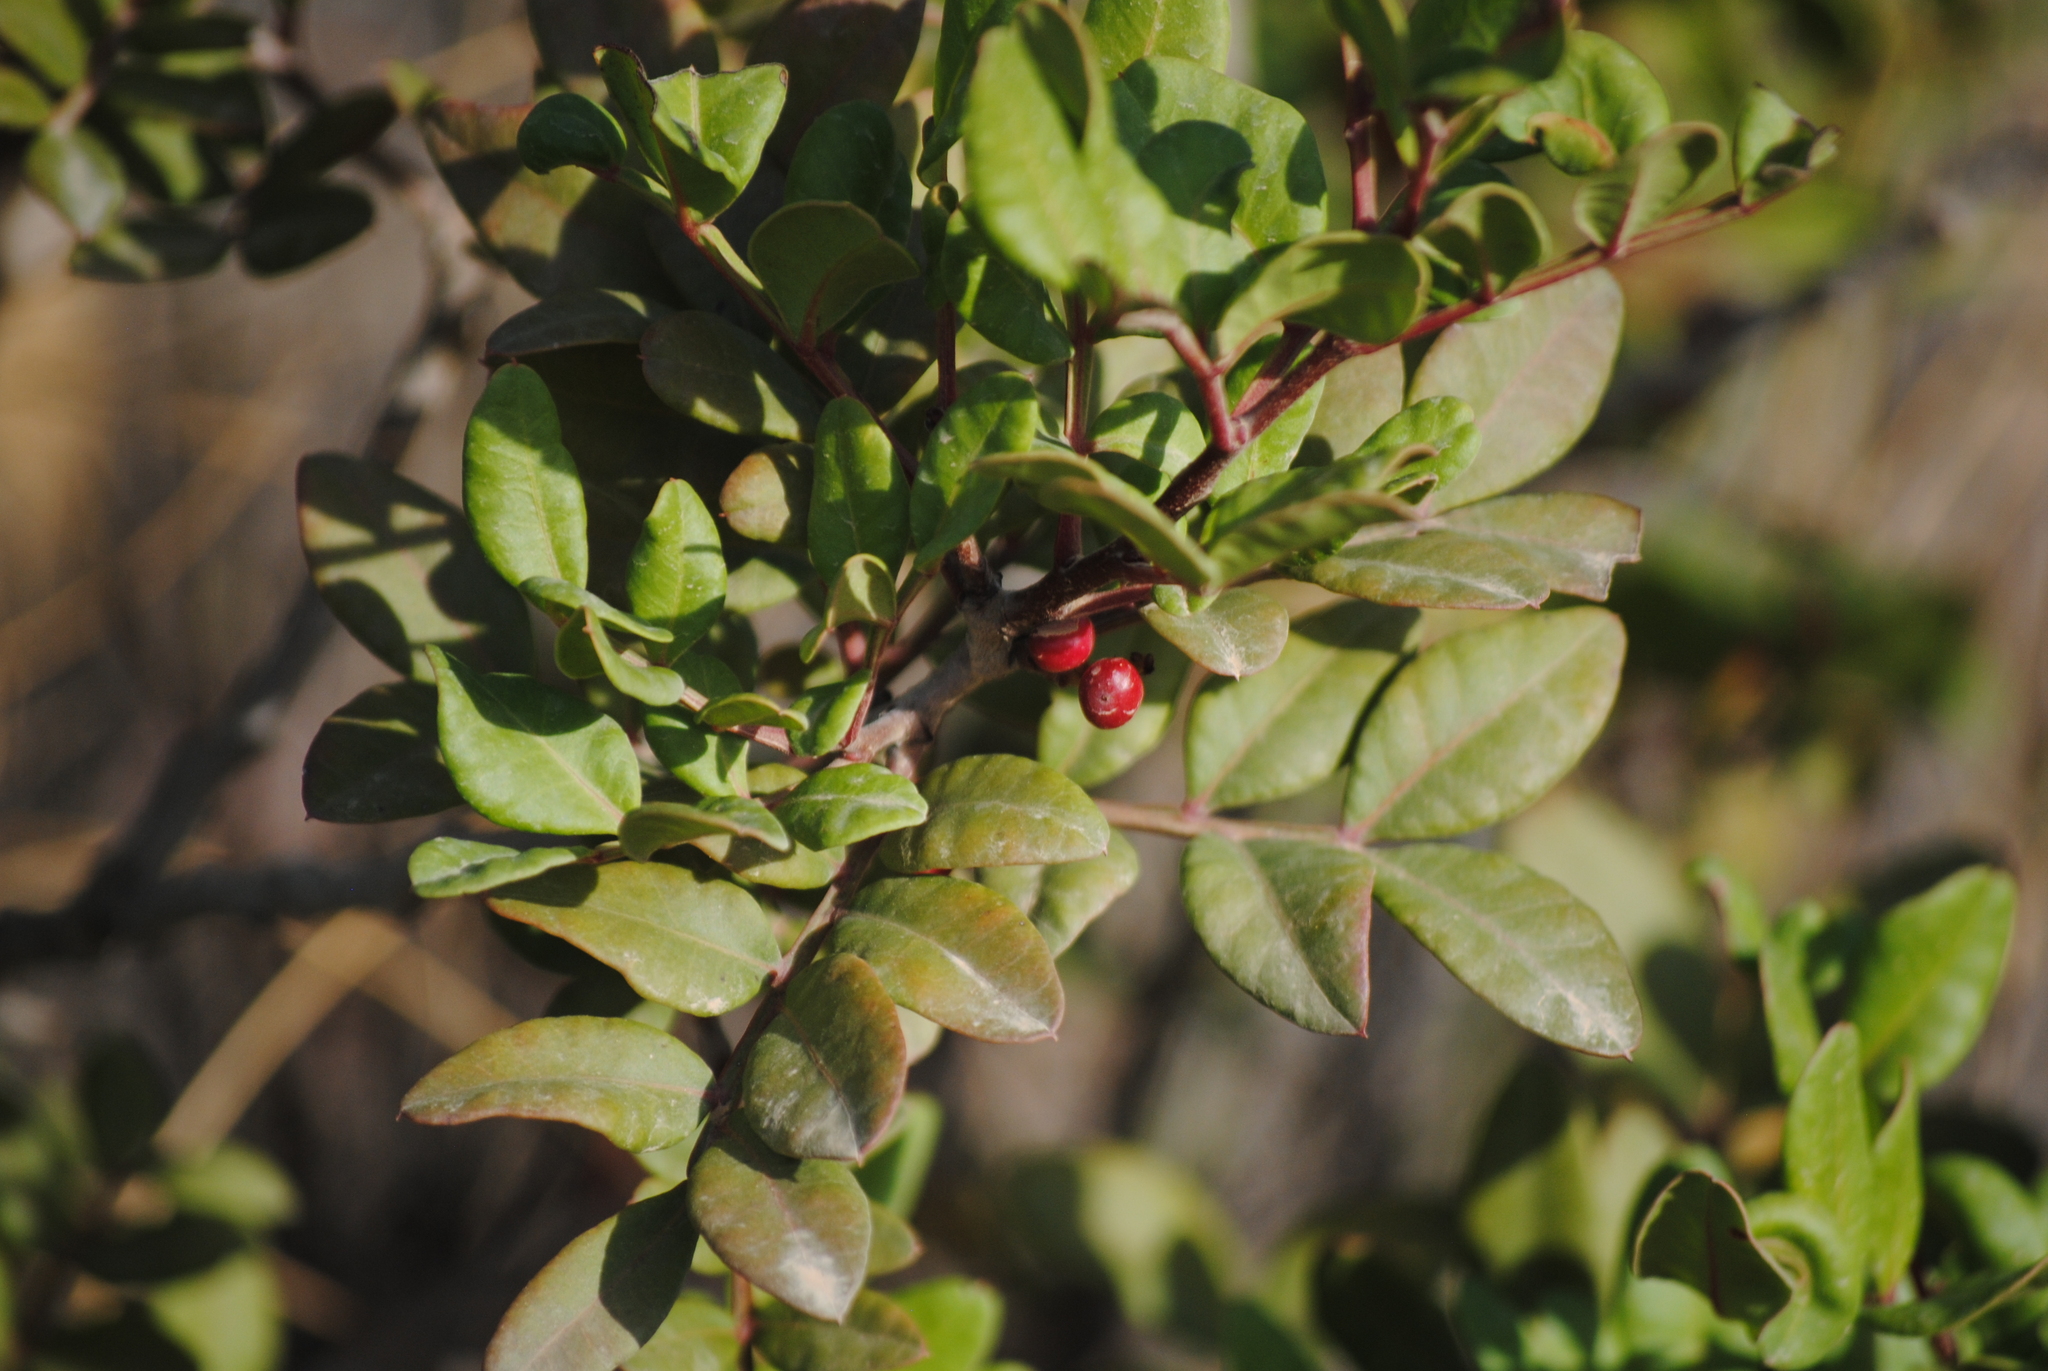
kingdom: Plantae
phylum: Tracheophyta
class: Magnoliopsida
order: Sapindales
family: Anacardiaceae
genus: Pistacia
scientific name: Pistacia lentiscus
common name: Lentisk
